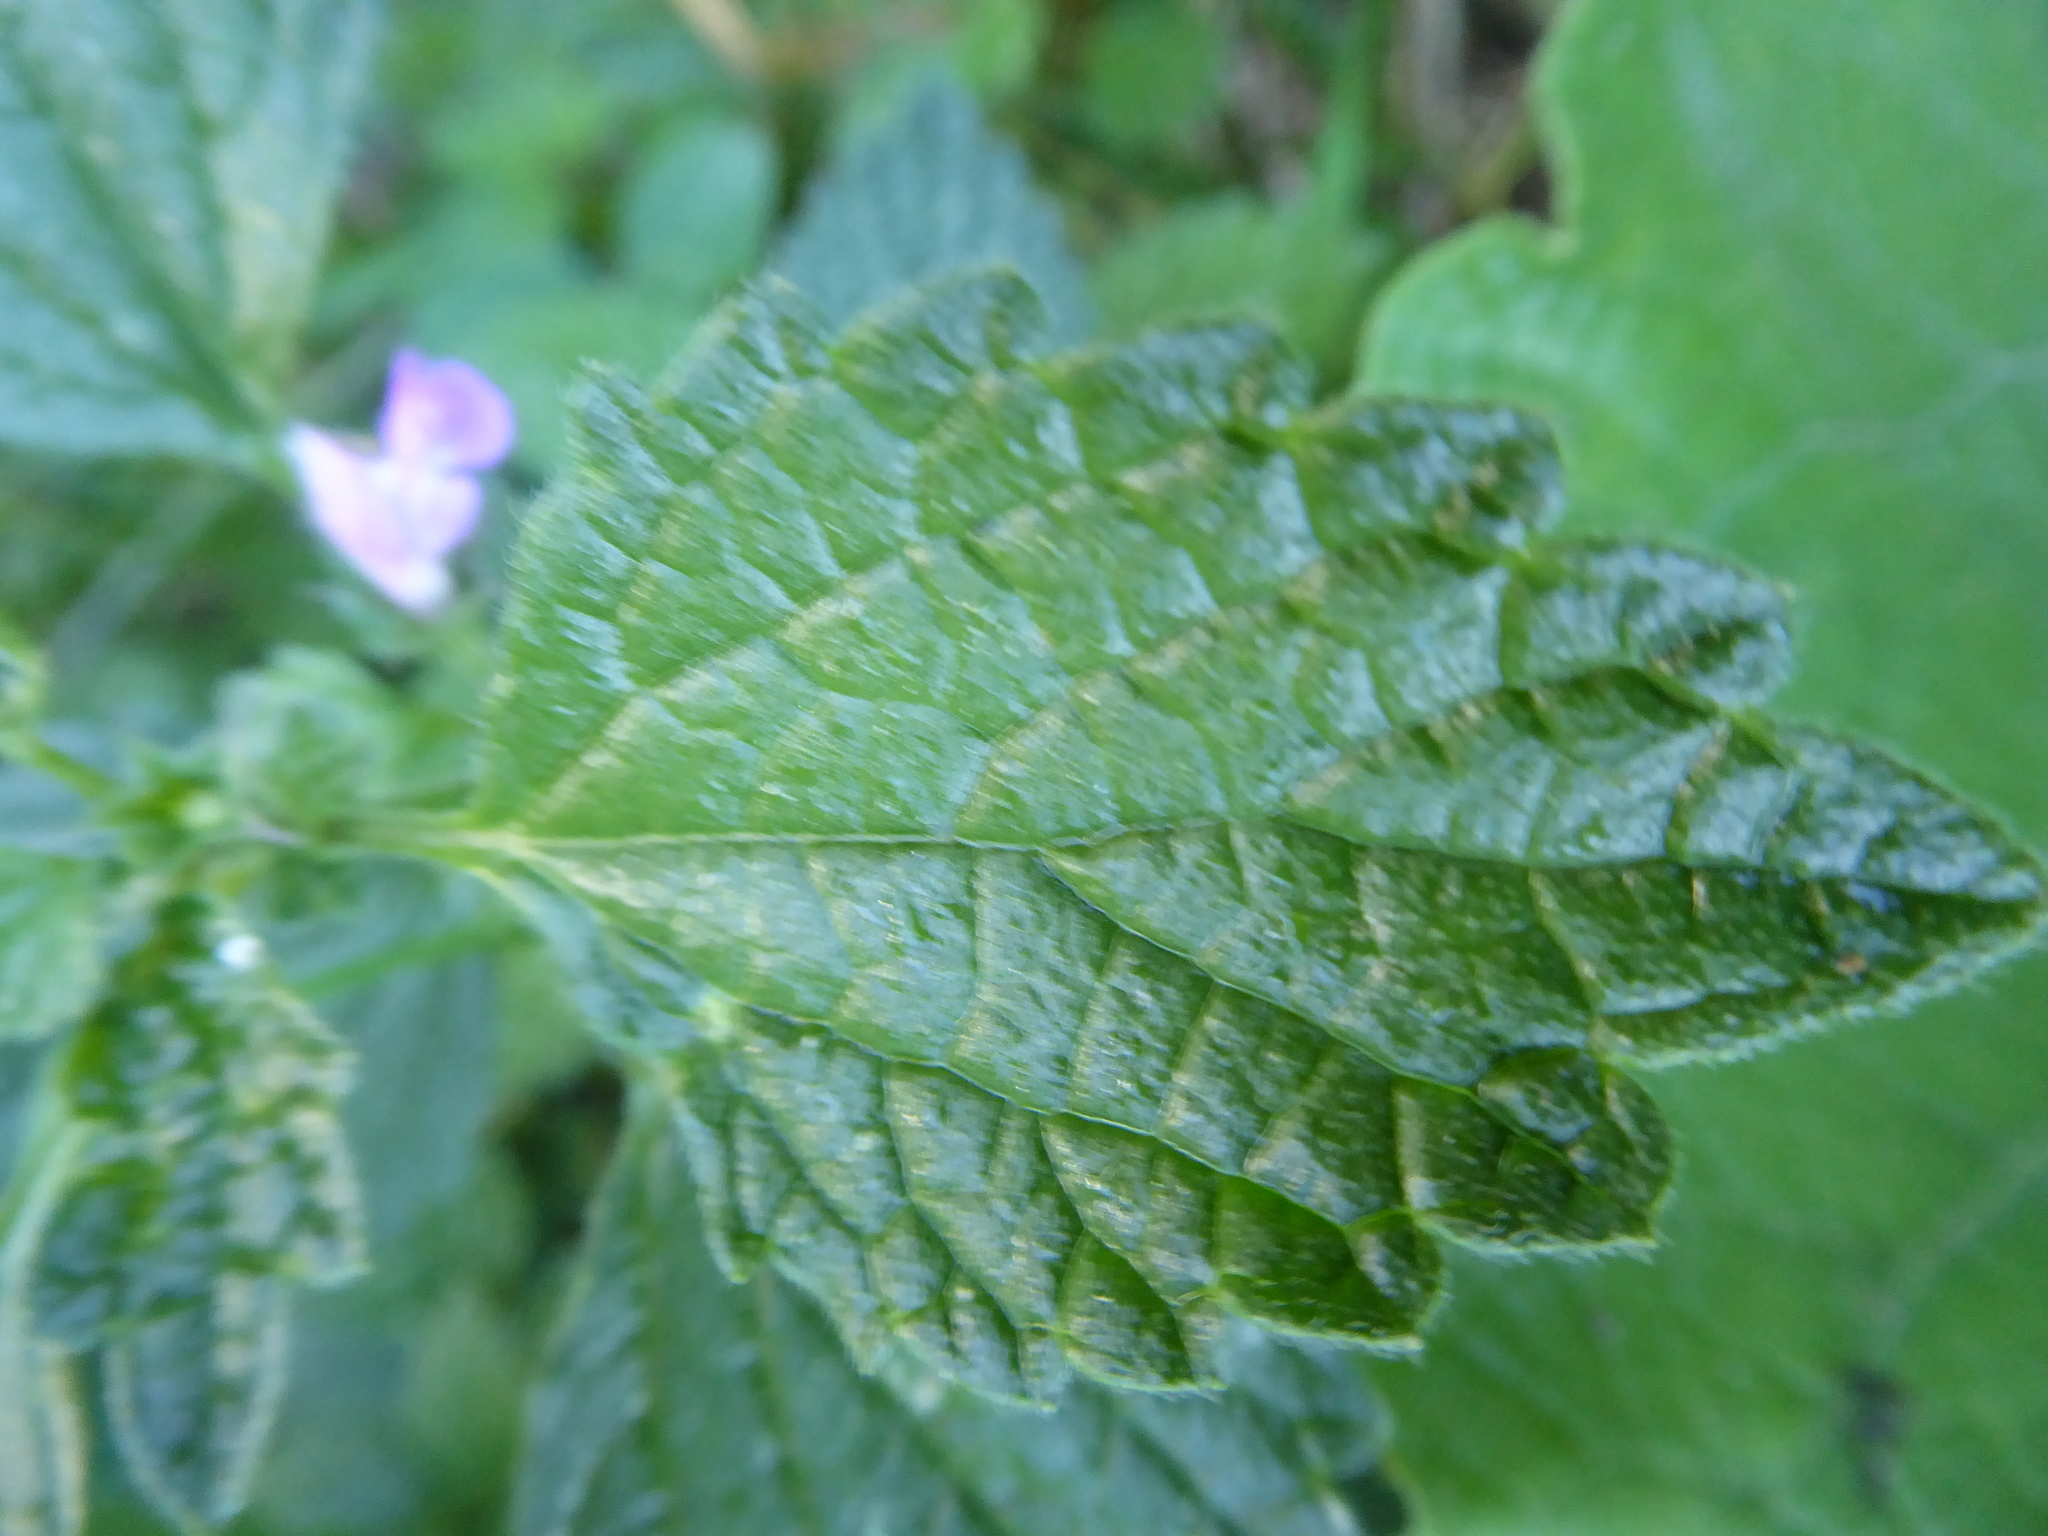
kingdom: Plantae
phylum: Tracheophyta
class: Magnoliopsida
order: Lamiales
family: Lamiaceae
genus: Ballota
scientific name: Ballota nigra
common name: Black horehound
